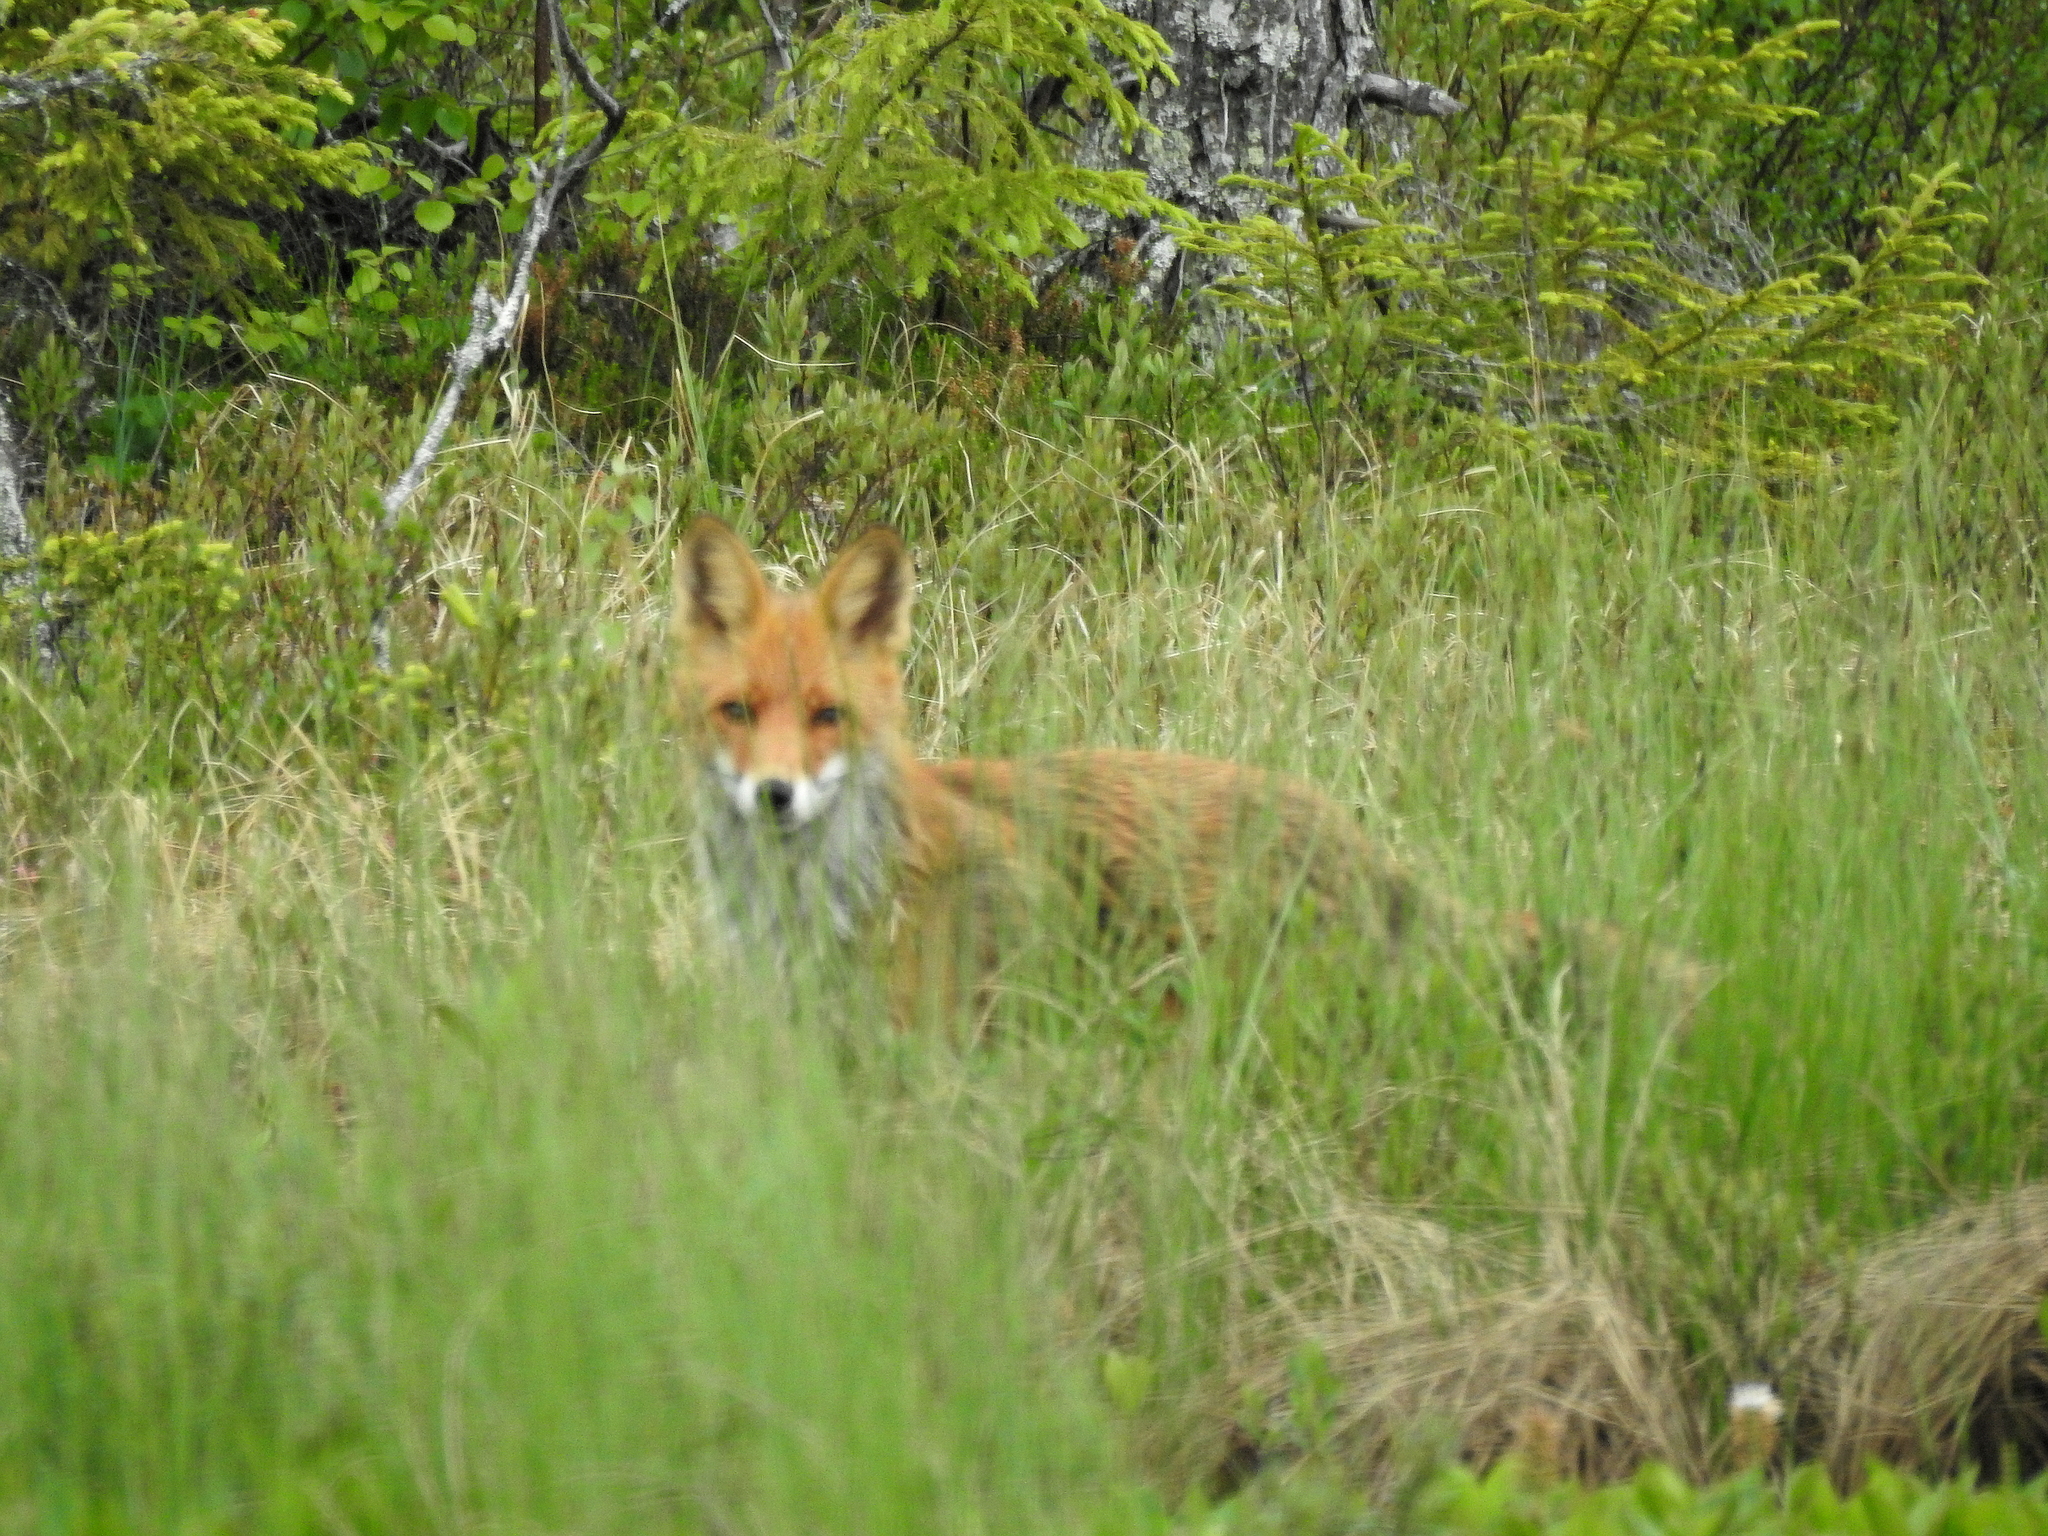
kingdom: Animalia
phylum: Chordata
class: Mammalia
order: Carnivora
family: Canidae
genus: Vulpes
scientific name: Vulpes vulpes
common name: Red fox
